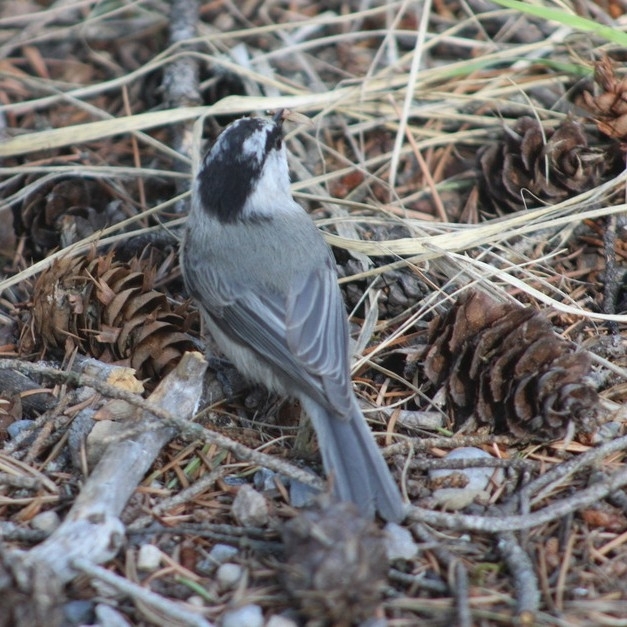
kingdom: Animalia
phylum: Chordata
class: Aves
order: Passeriformes
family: Paridae
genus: Poecile
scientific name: Poecile gambeli
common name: Mountain chickadee
